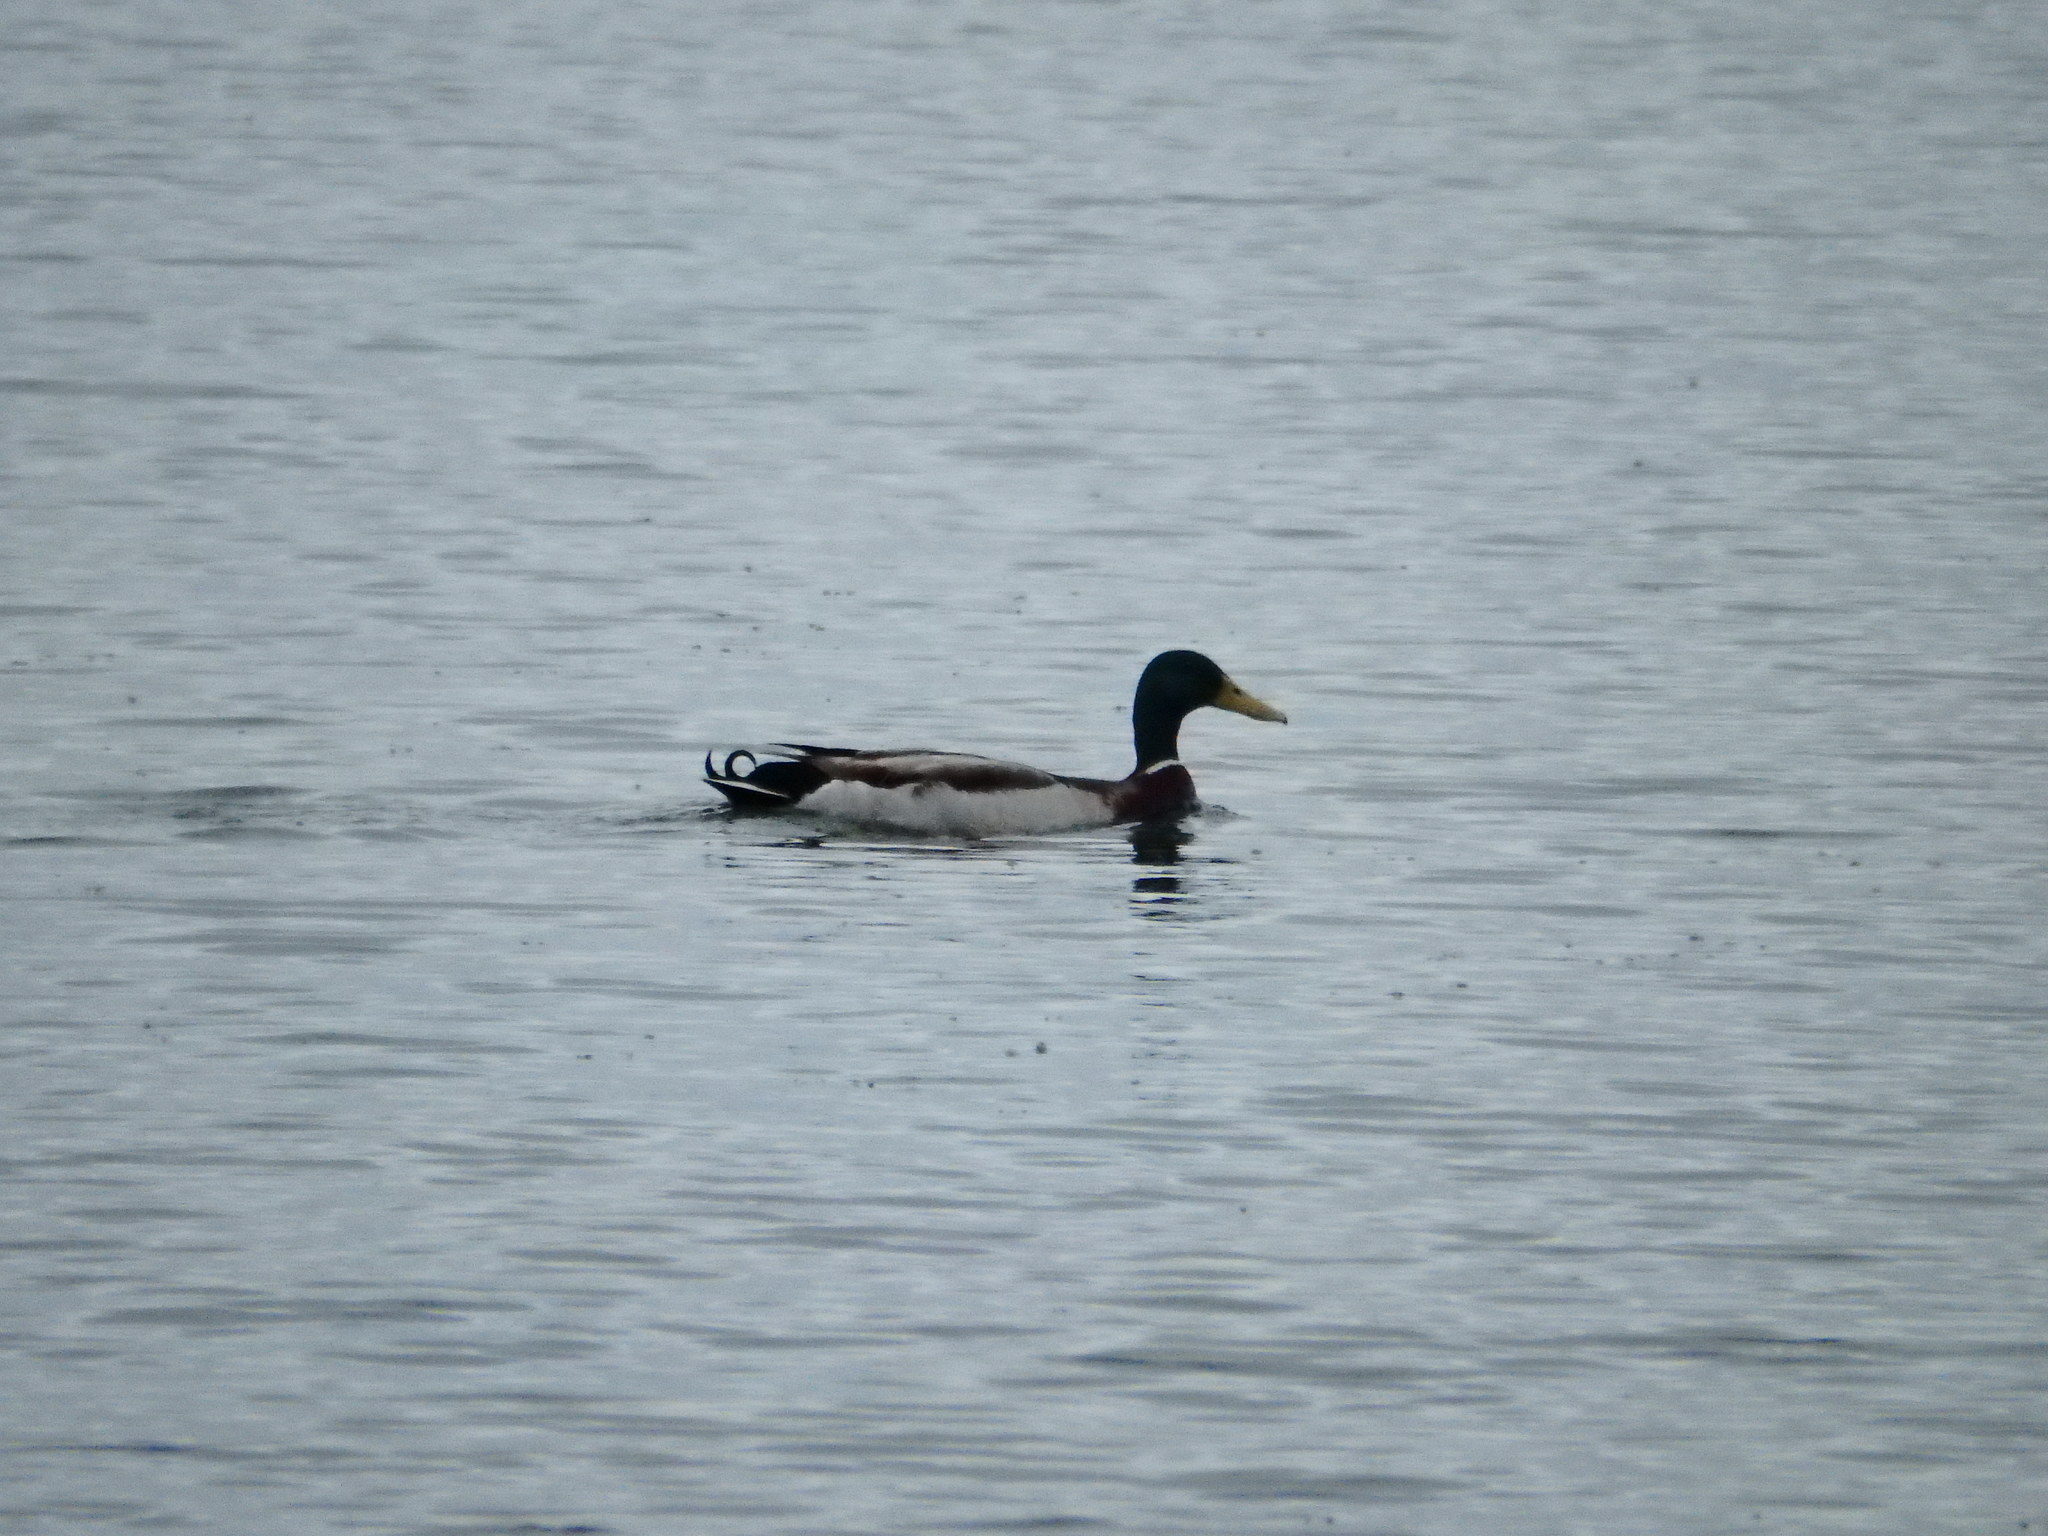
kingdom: Animalia
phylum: Chordata
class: Aves
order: Anseriformes
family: Anatidae
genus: Anas
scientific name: Anas platyrhynchos
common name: Mallard
